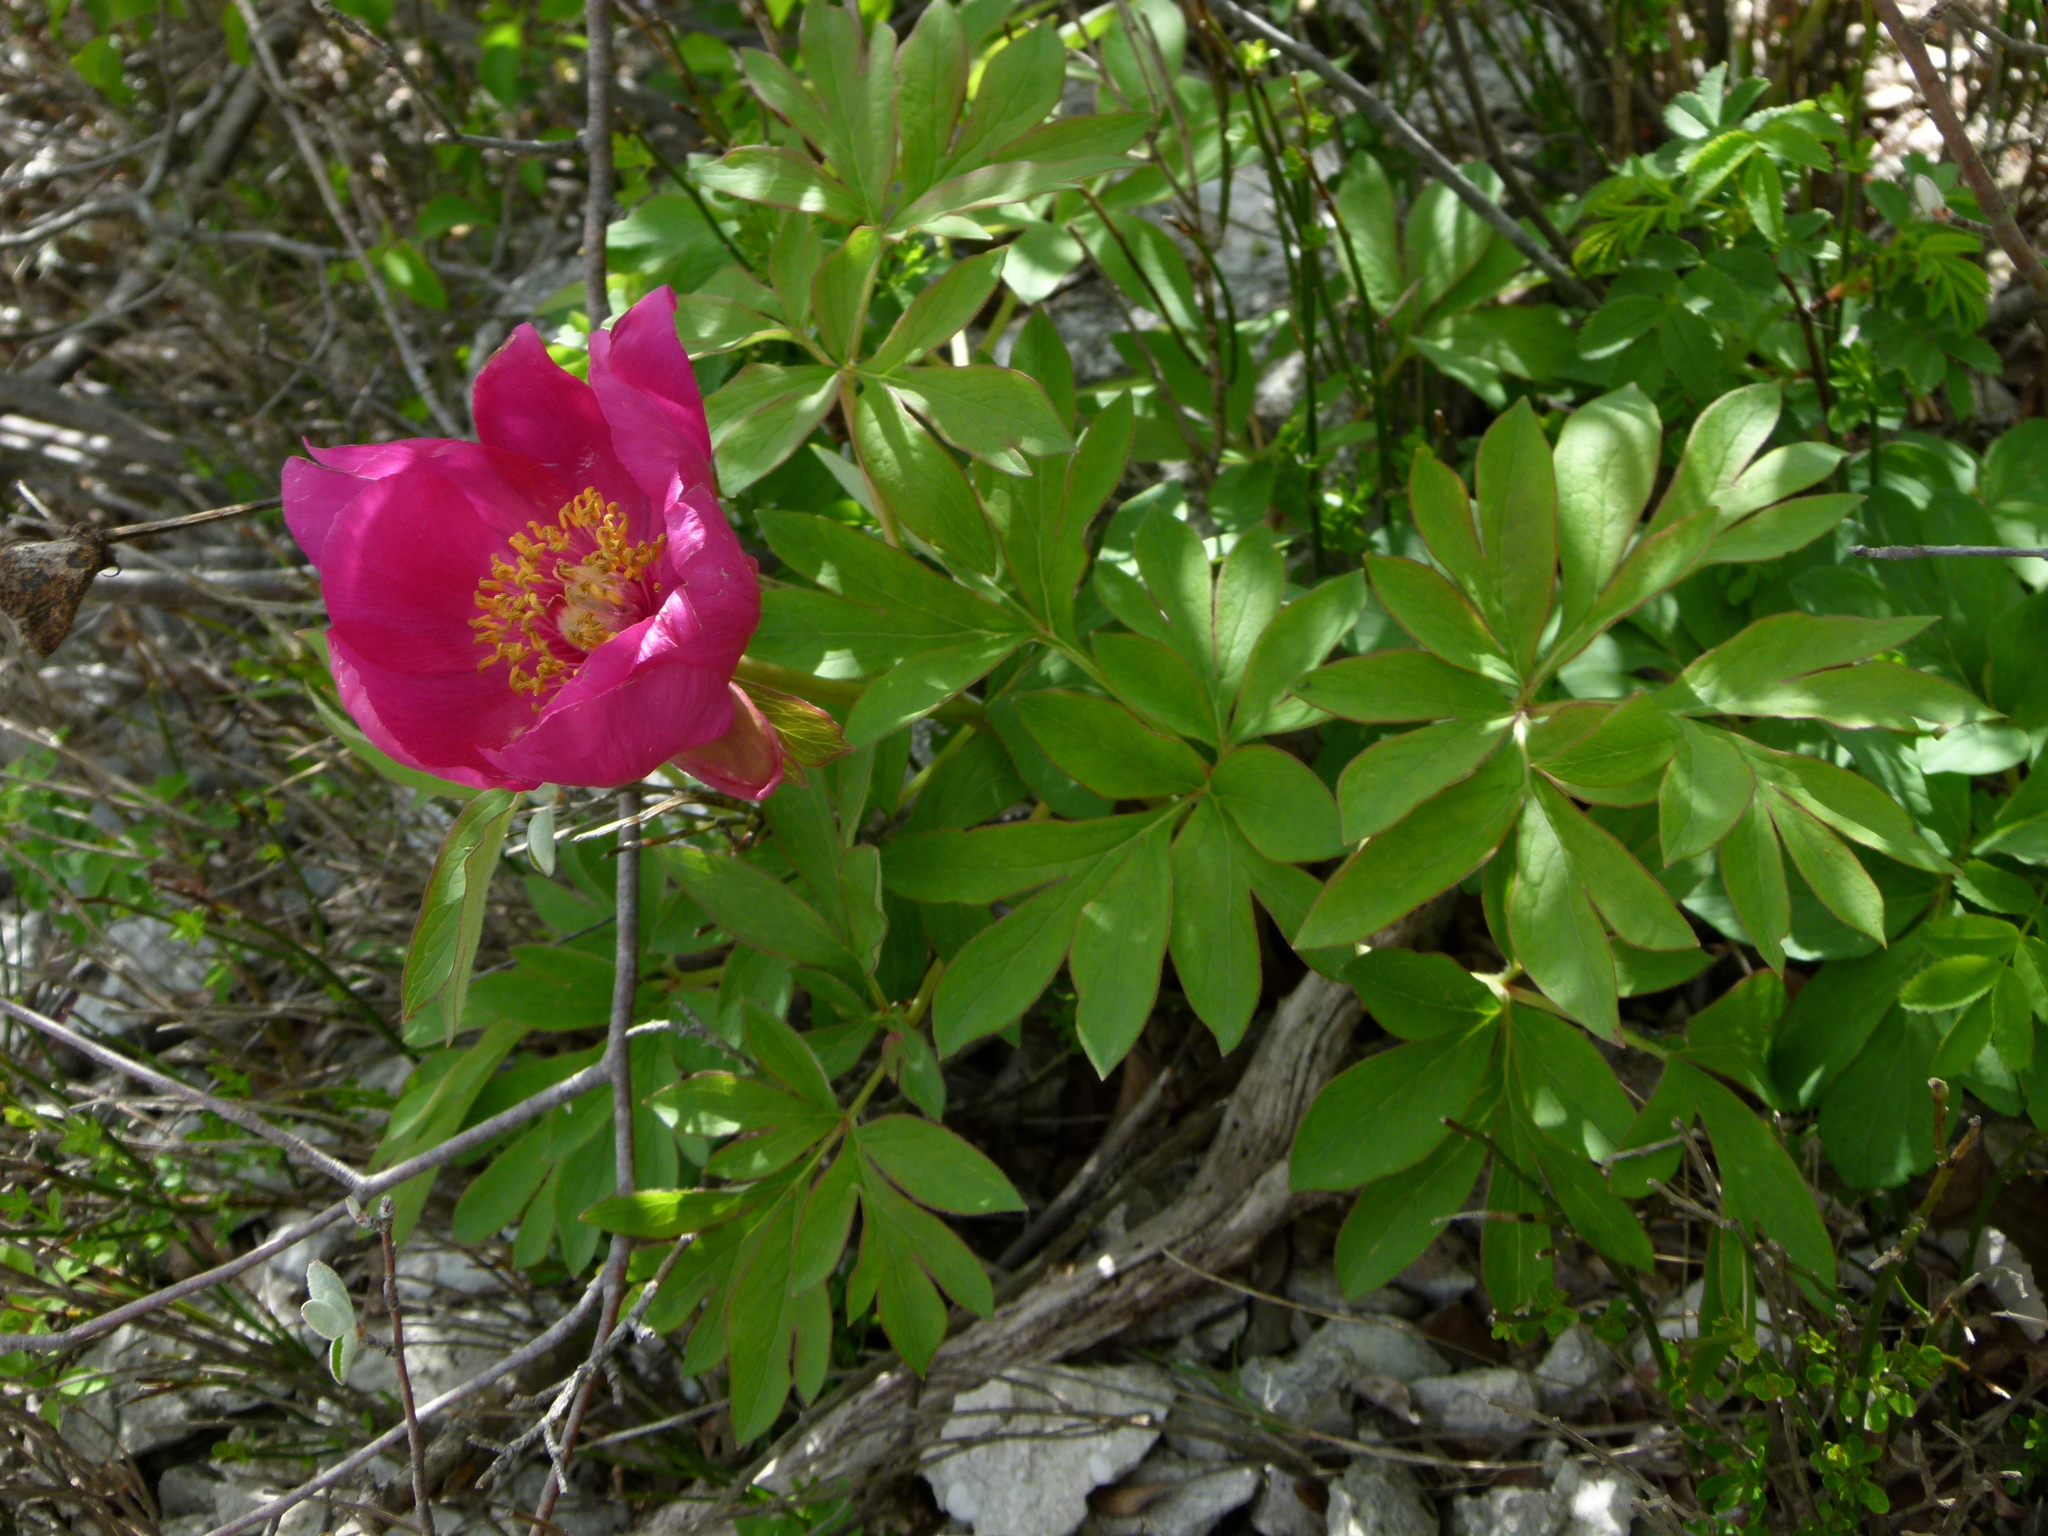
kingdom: Plantae
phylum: Tracheophyta
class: Magnoliopsida
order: Saxifragales
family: Paeoniaceae
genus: Paeonia
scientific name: Paeonia officinalis
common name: Common peony
